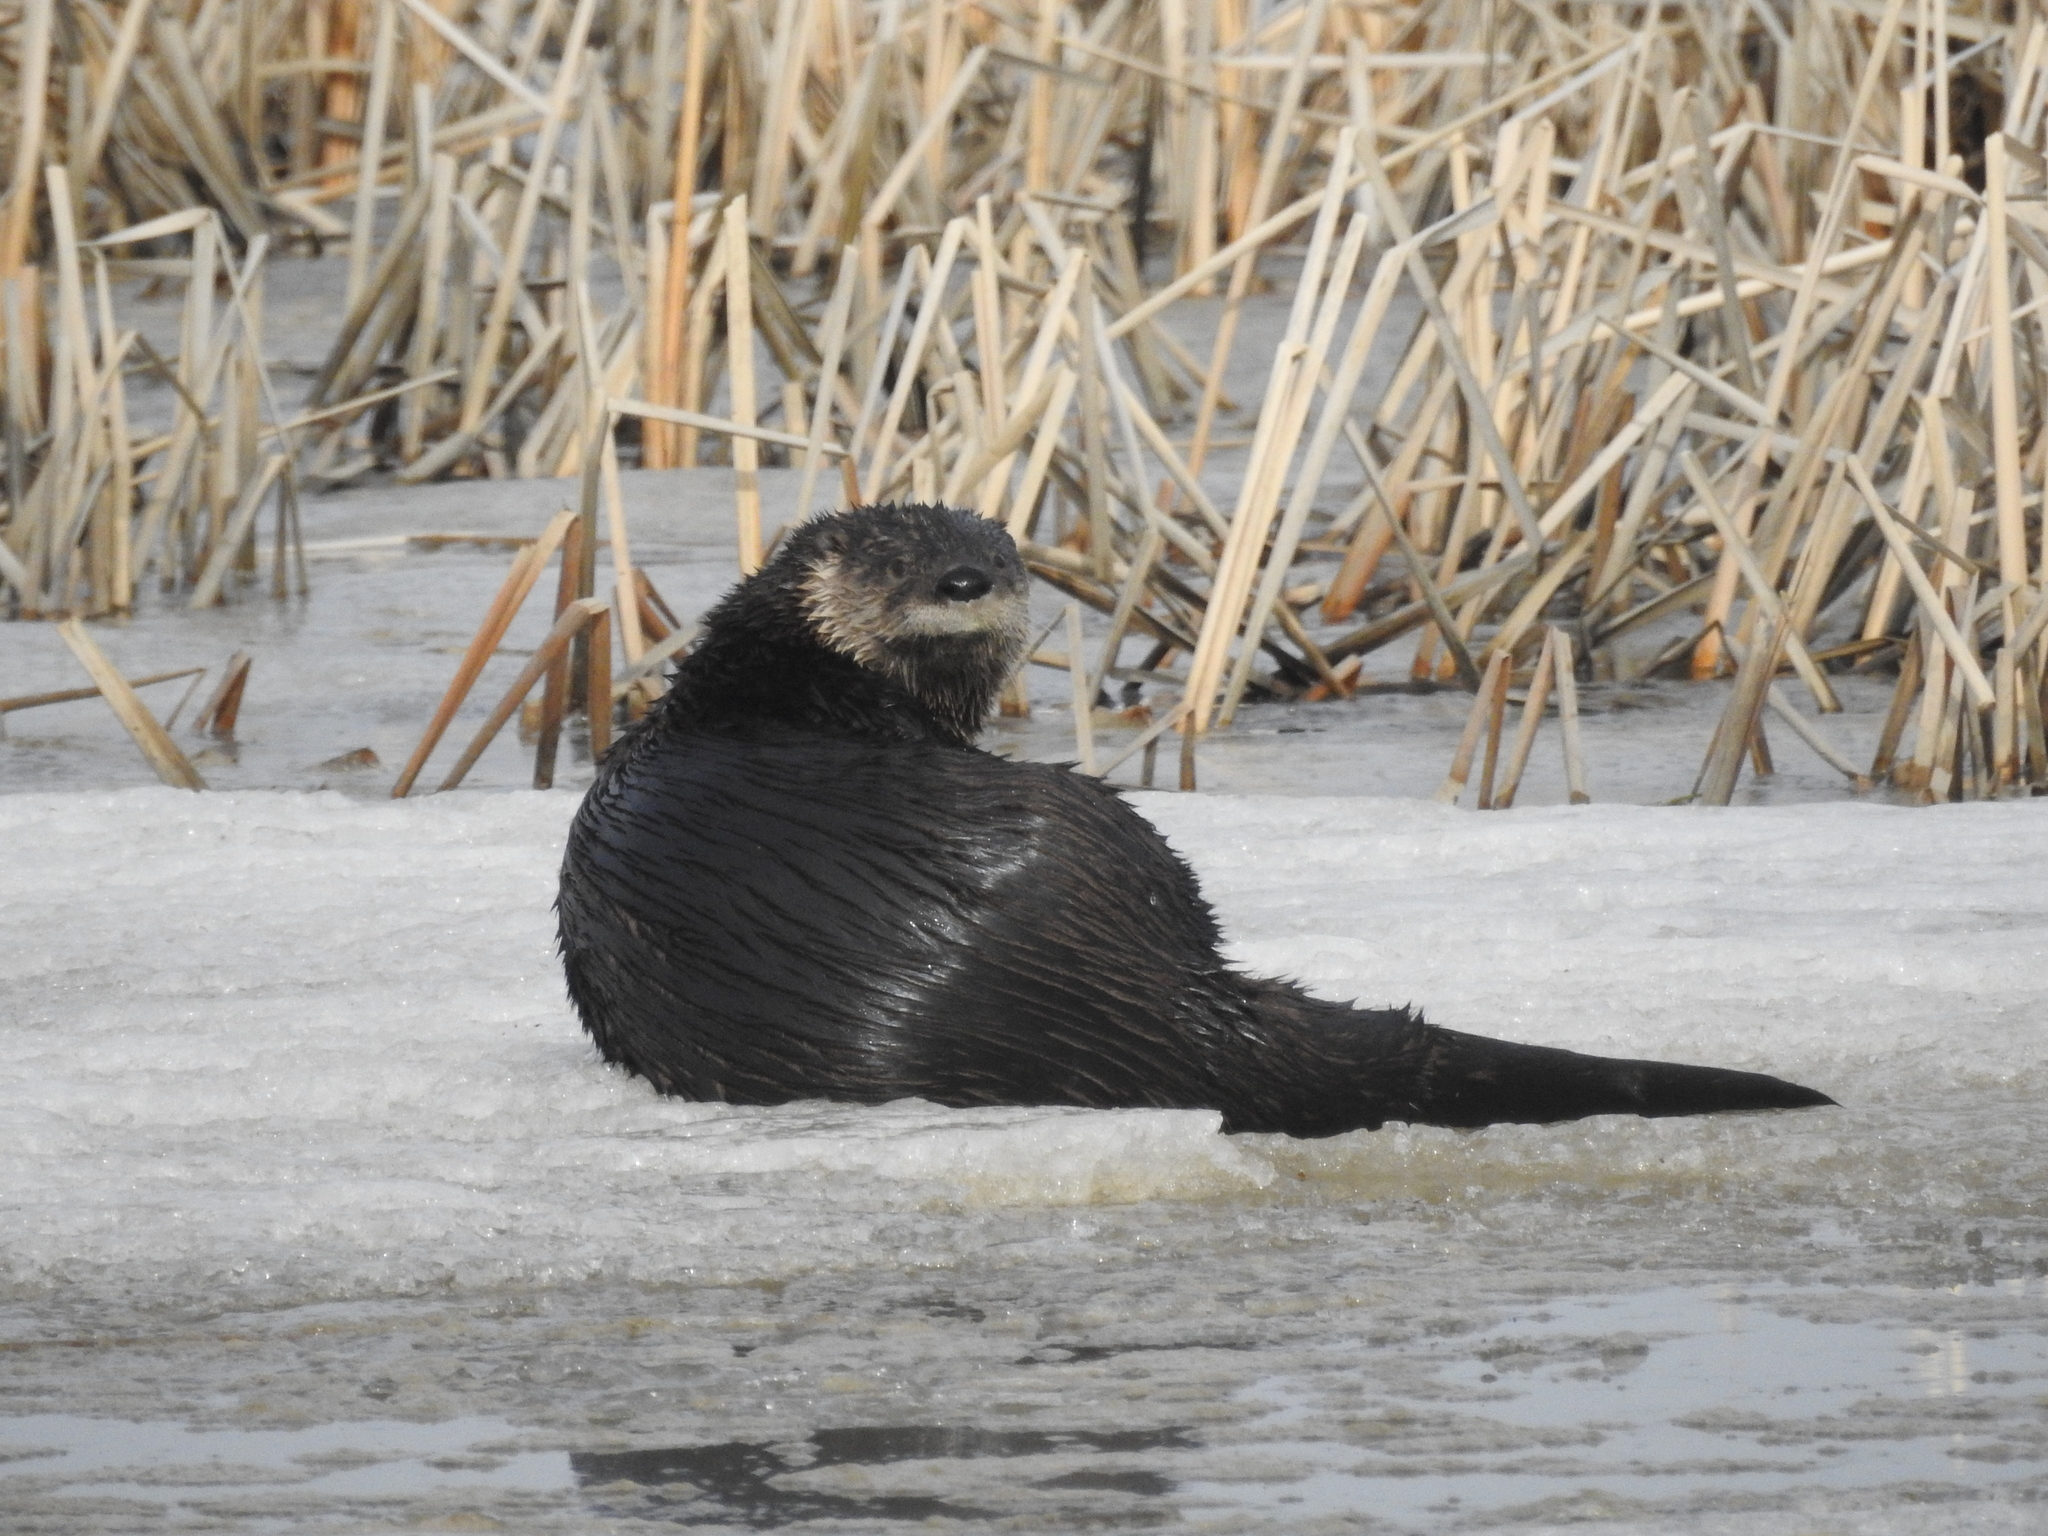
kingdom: Animalia
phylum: Chordata
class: Mammalia
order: Carnivora
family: Mustelidae
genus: Lontra
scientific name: Lontra canadensis
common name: North american river otter
